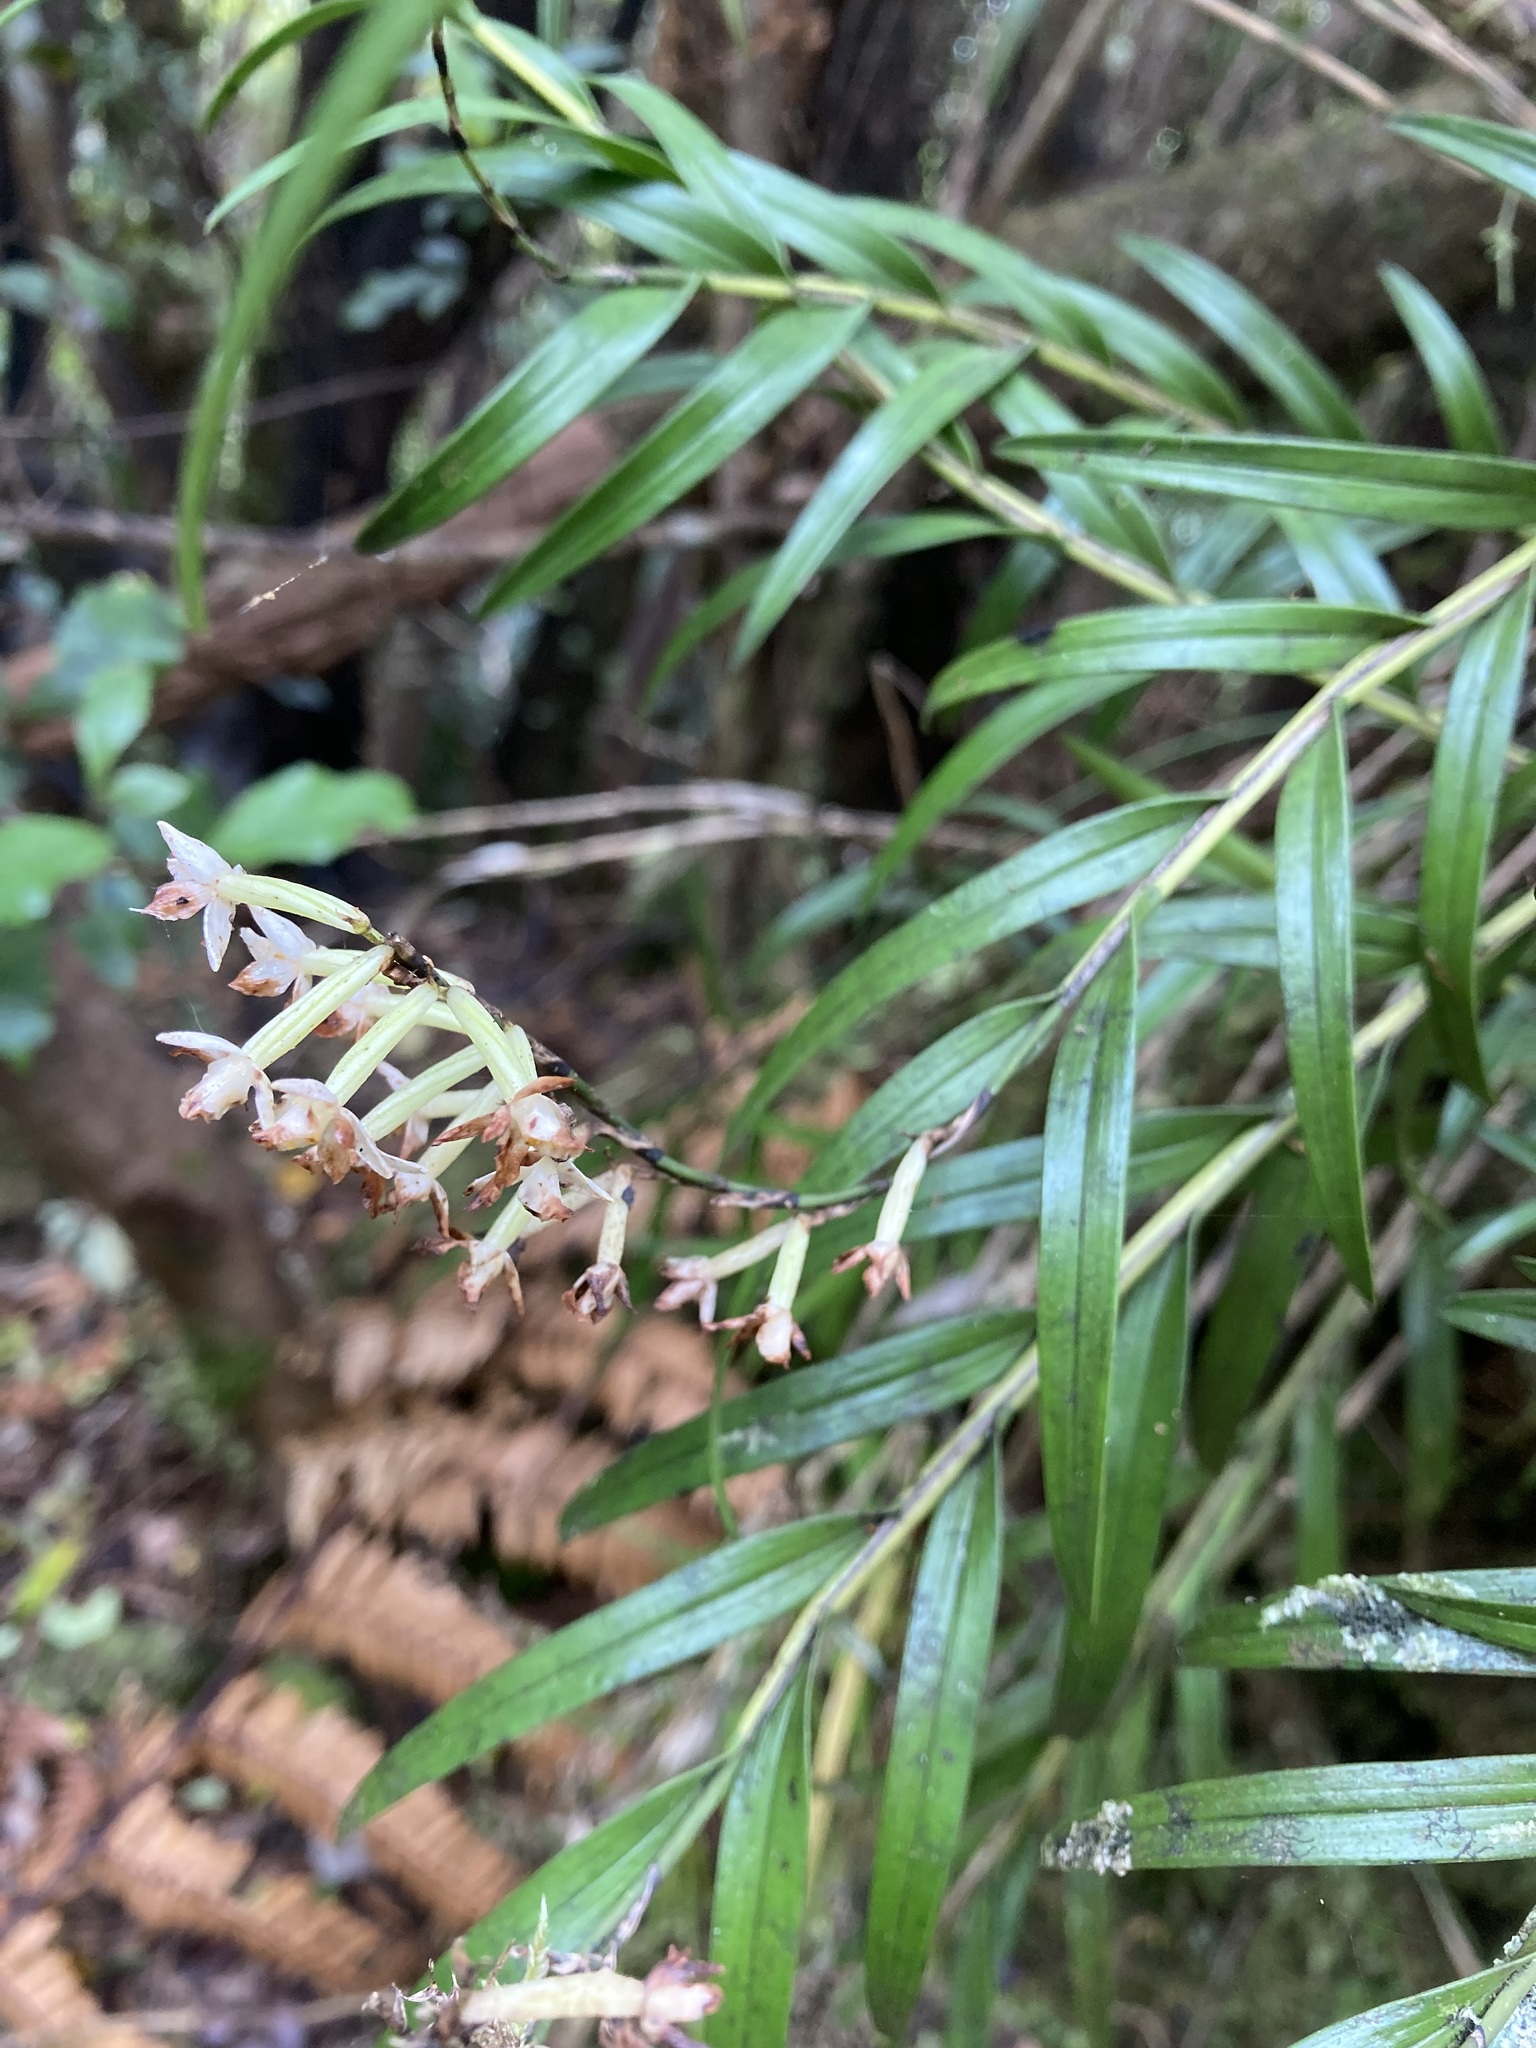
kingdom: Plantae
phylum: Tracheophyta
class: Liliopsida
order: Asparagales
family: Orchidaceae
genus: Earina
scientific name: Earina autumnalis
